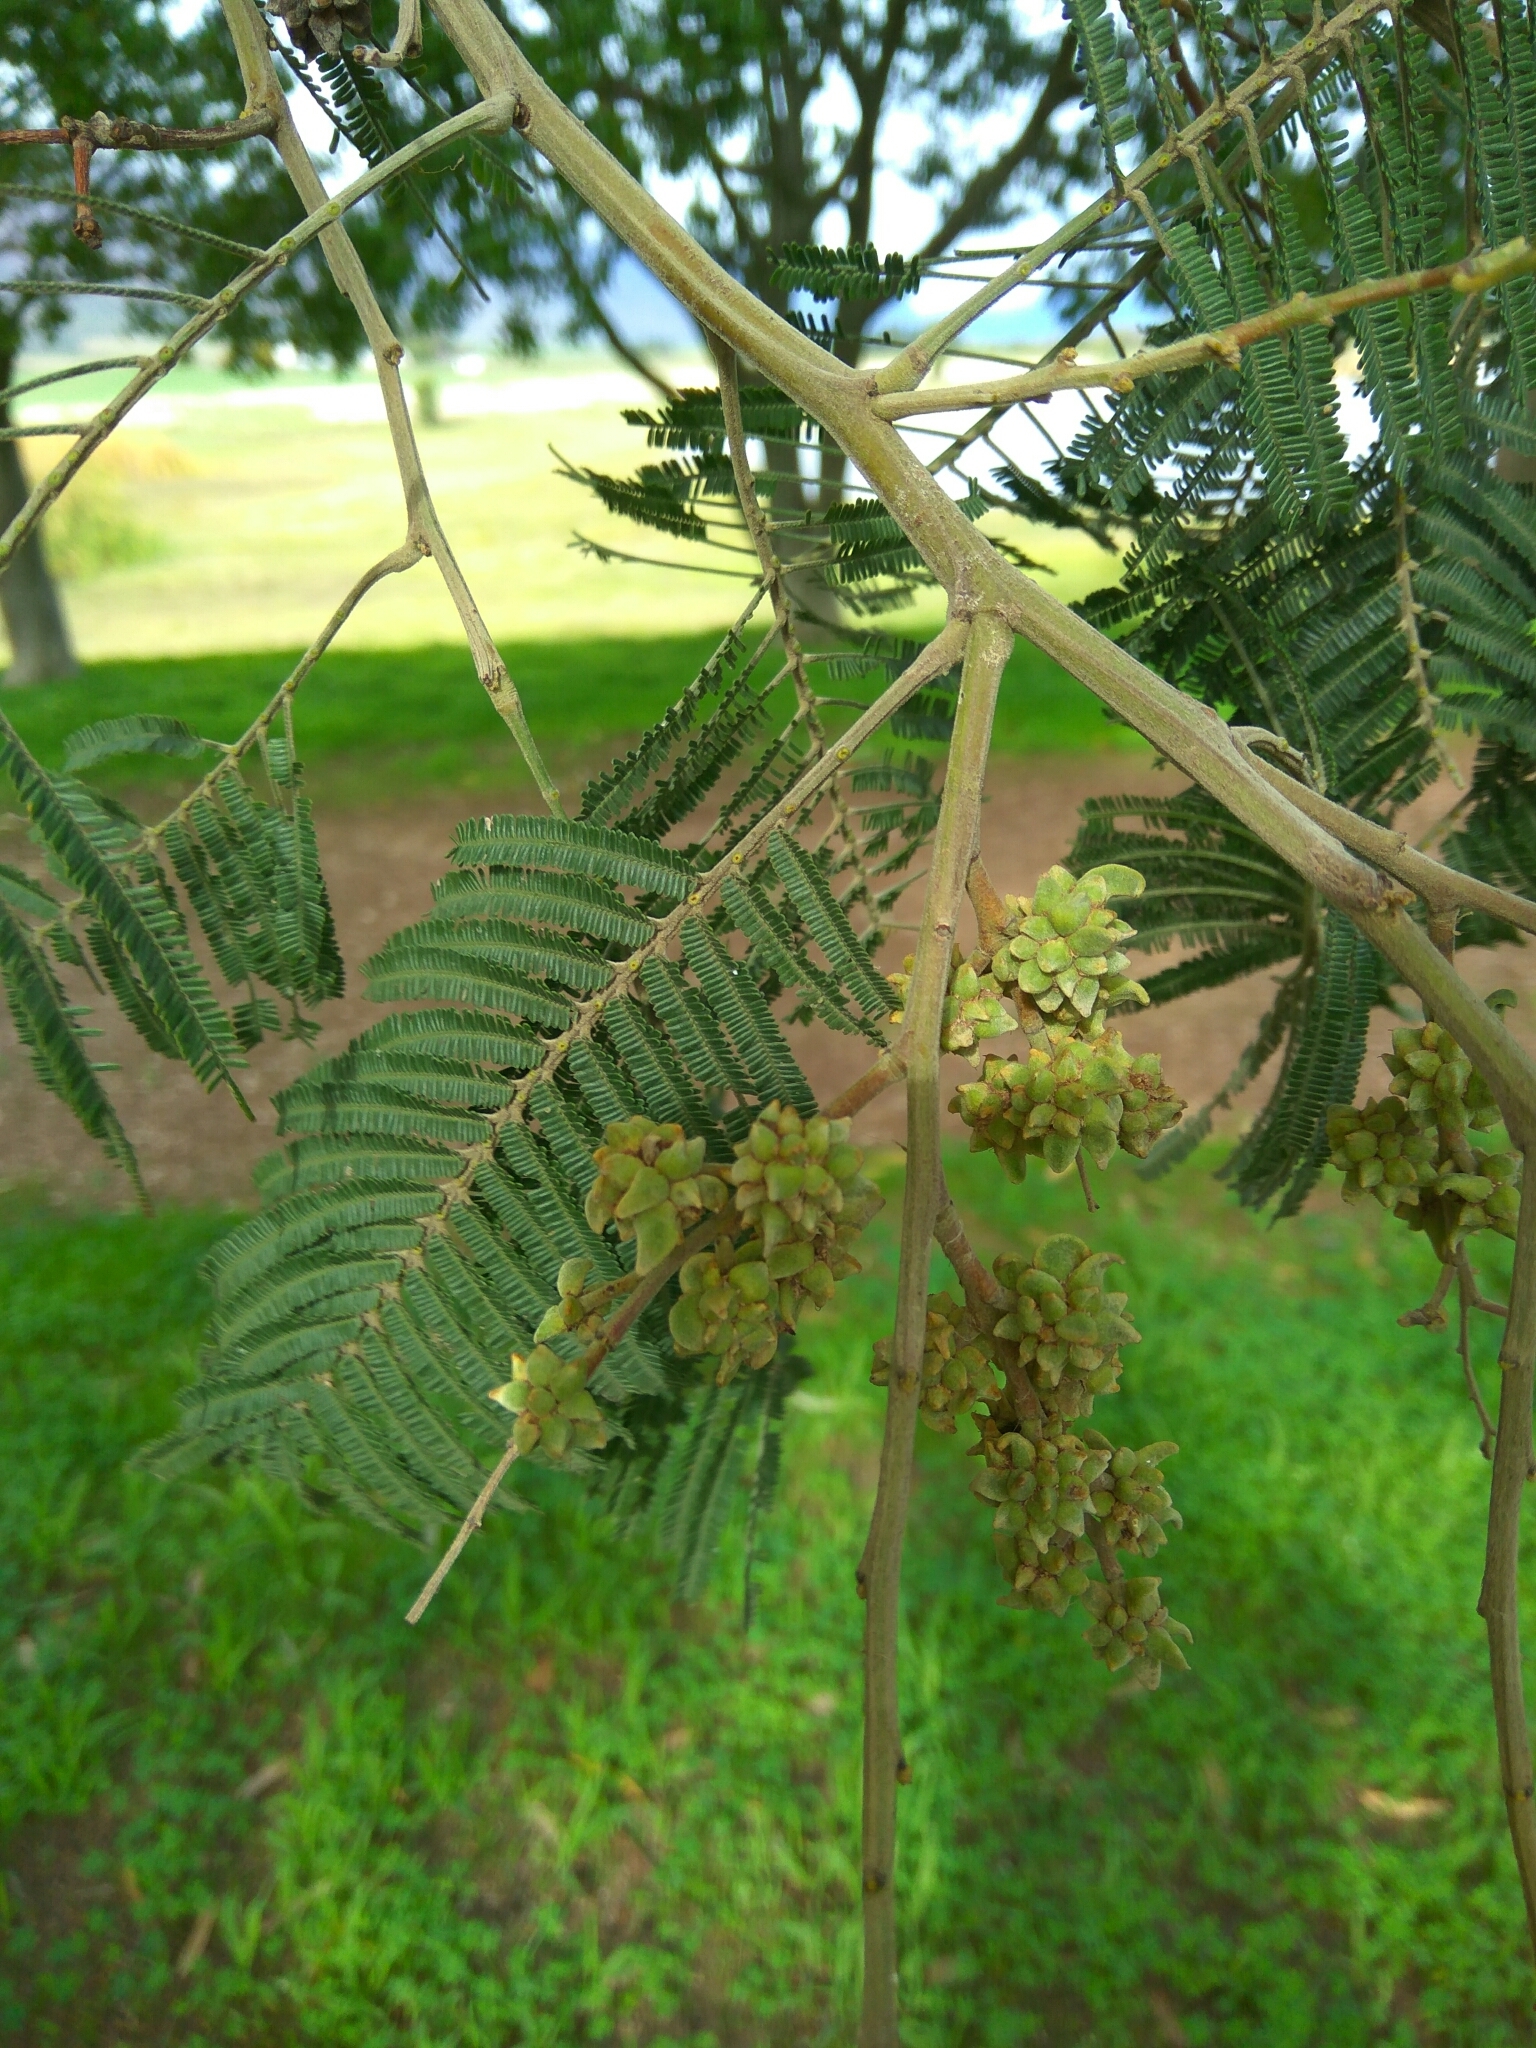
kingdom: Animalia
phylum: Arthropoda
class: Insecta
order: Diptera
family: Cecidomyiidae
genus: Dasineura
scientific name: Dasineura rubiformis
